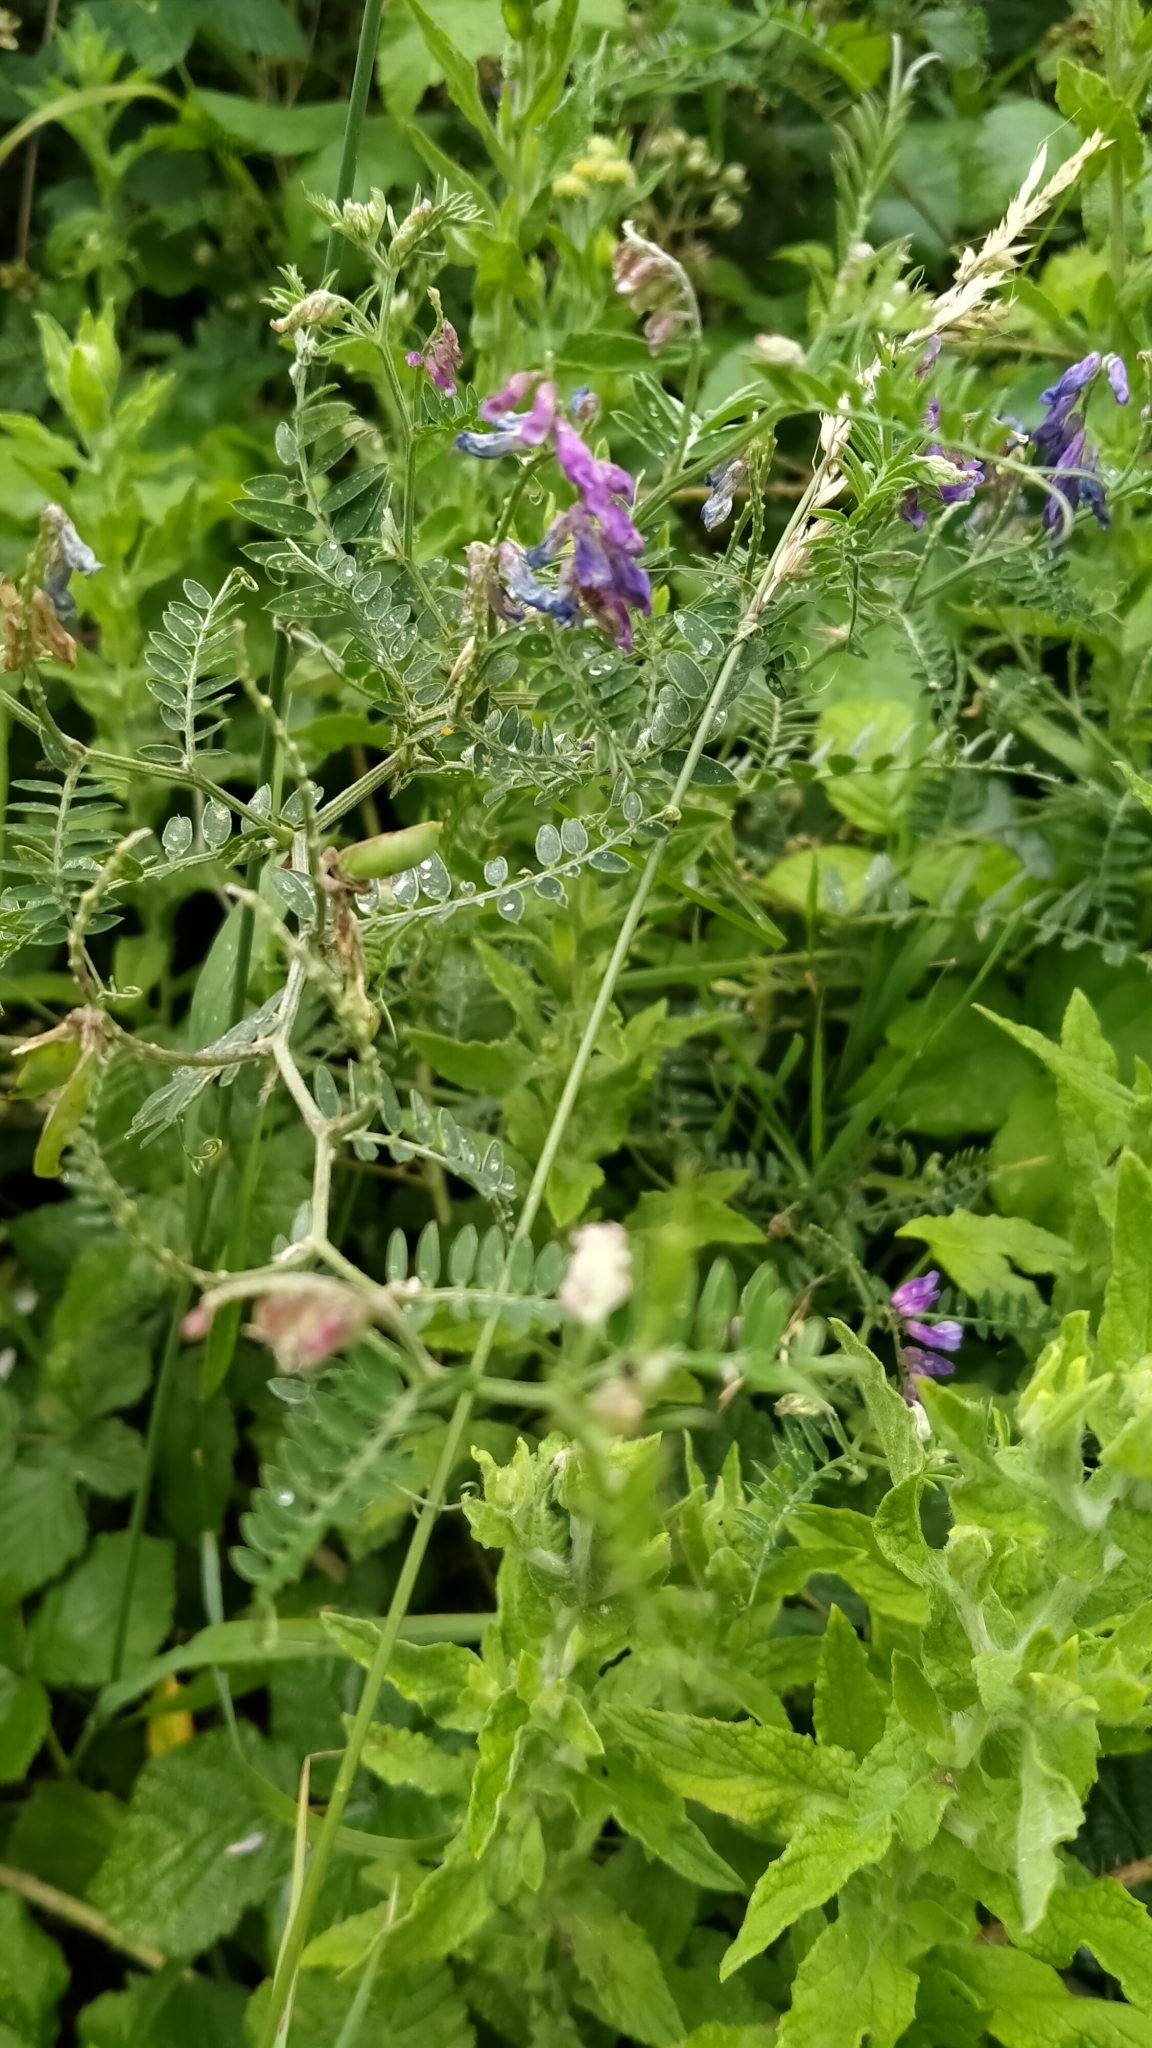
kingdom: Plantae
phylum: Tracheophyta
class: Magnoliopsida
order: Fabales
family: Fabaceae
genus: Vicia
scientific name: Vicia cracca
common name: Bird vetch
